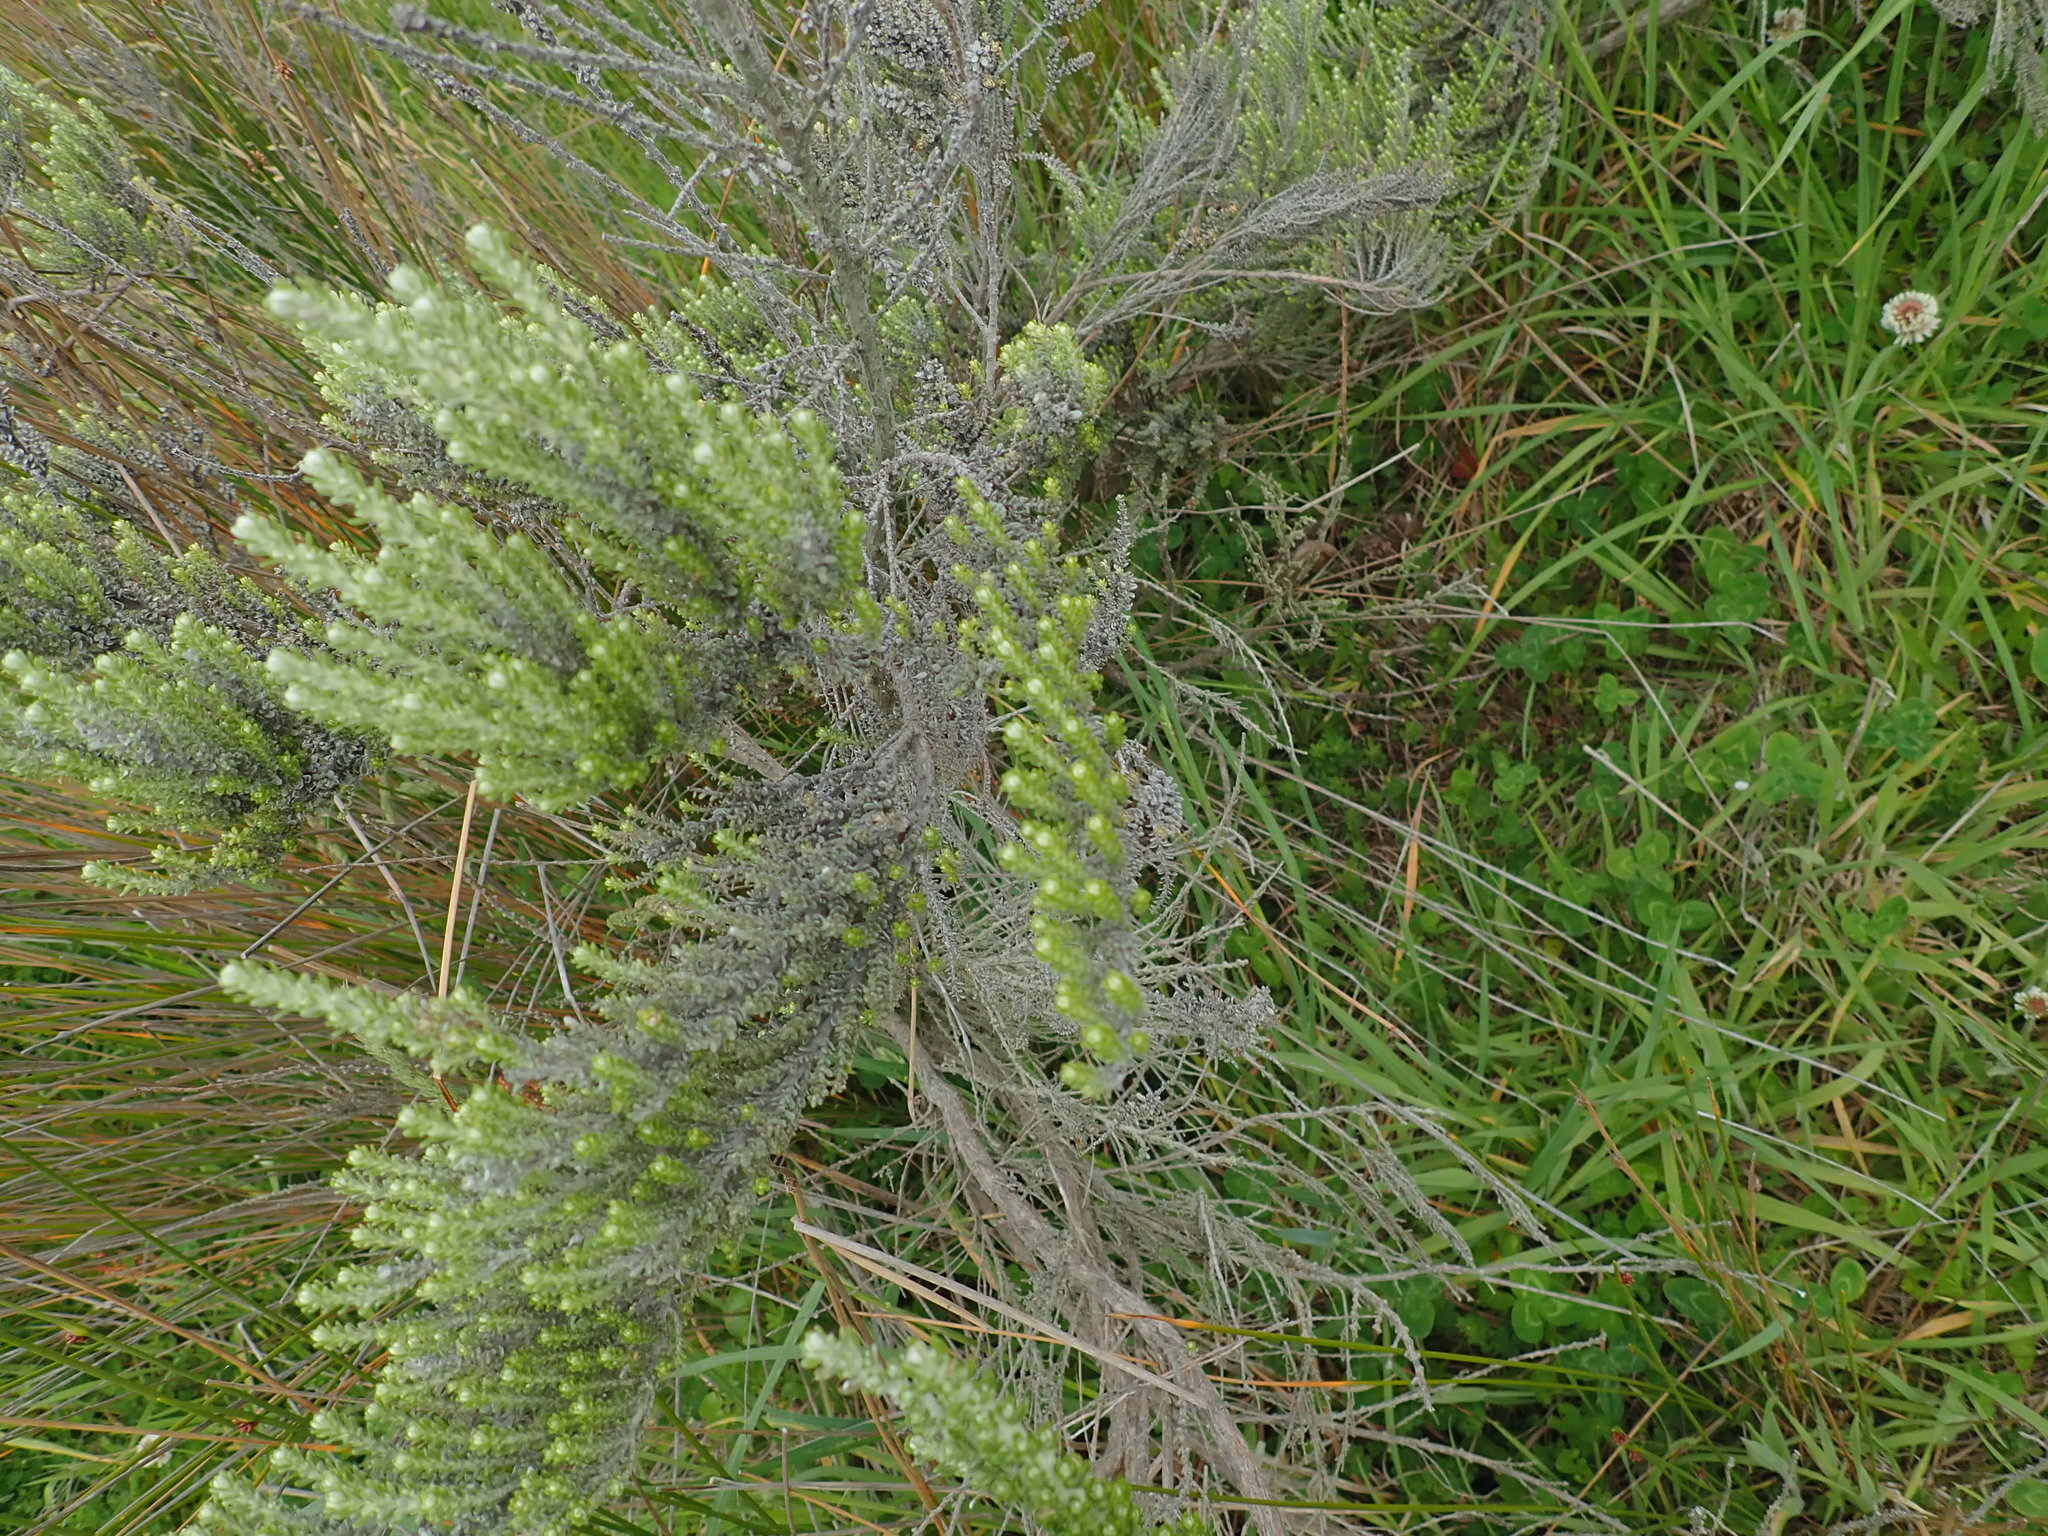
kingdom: Plantae
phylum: Tracheophyta
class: Magnoliopsida
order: Asterales
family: Asteraceae
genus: Ozothamnus
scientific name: Ozothamnus leptophyllus
